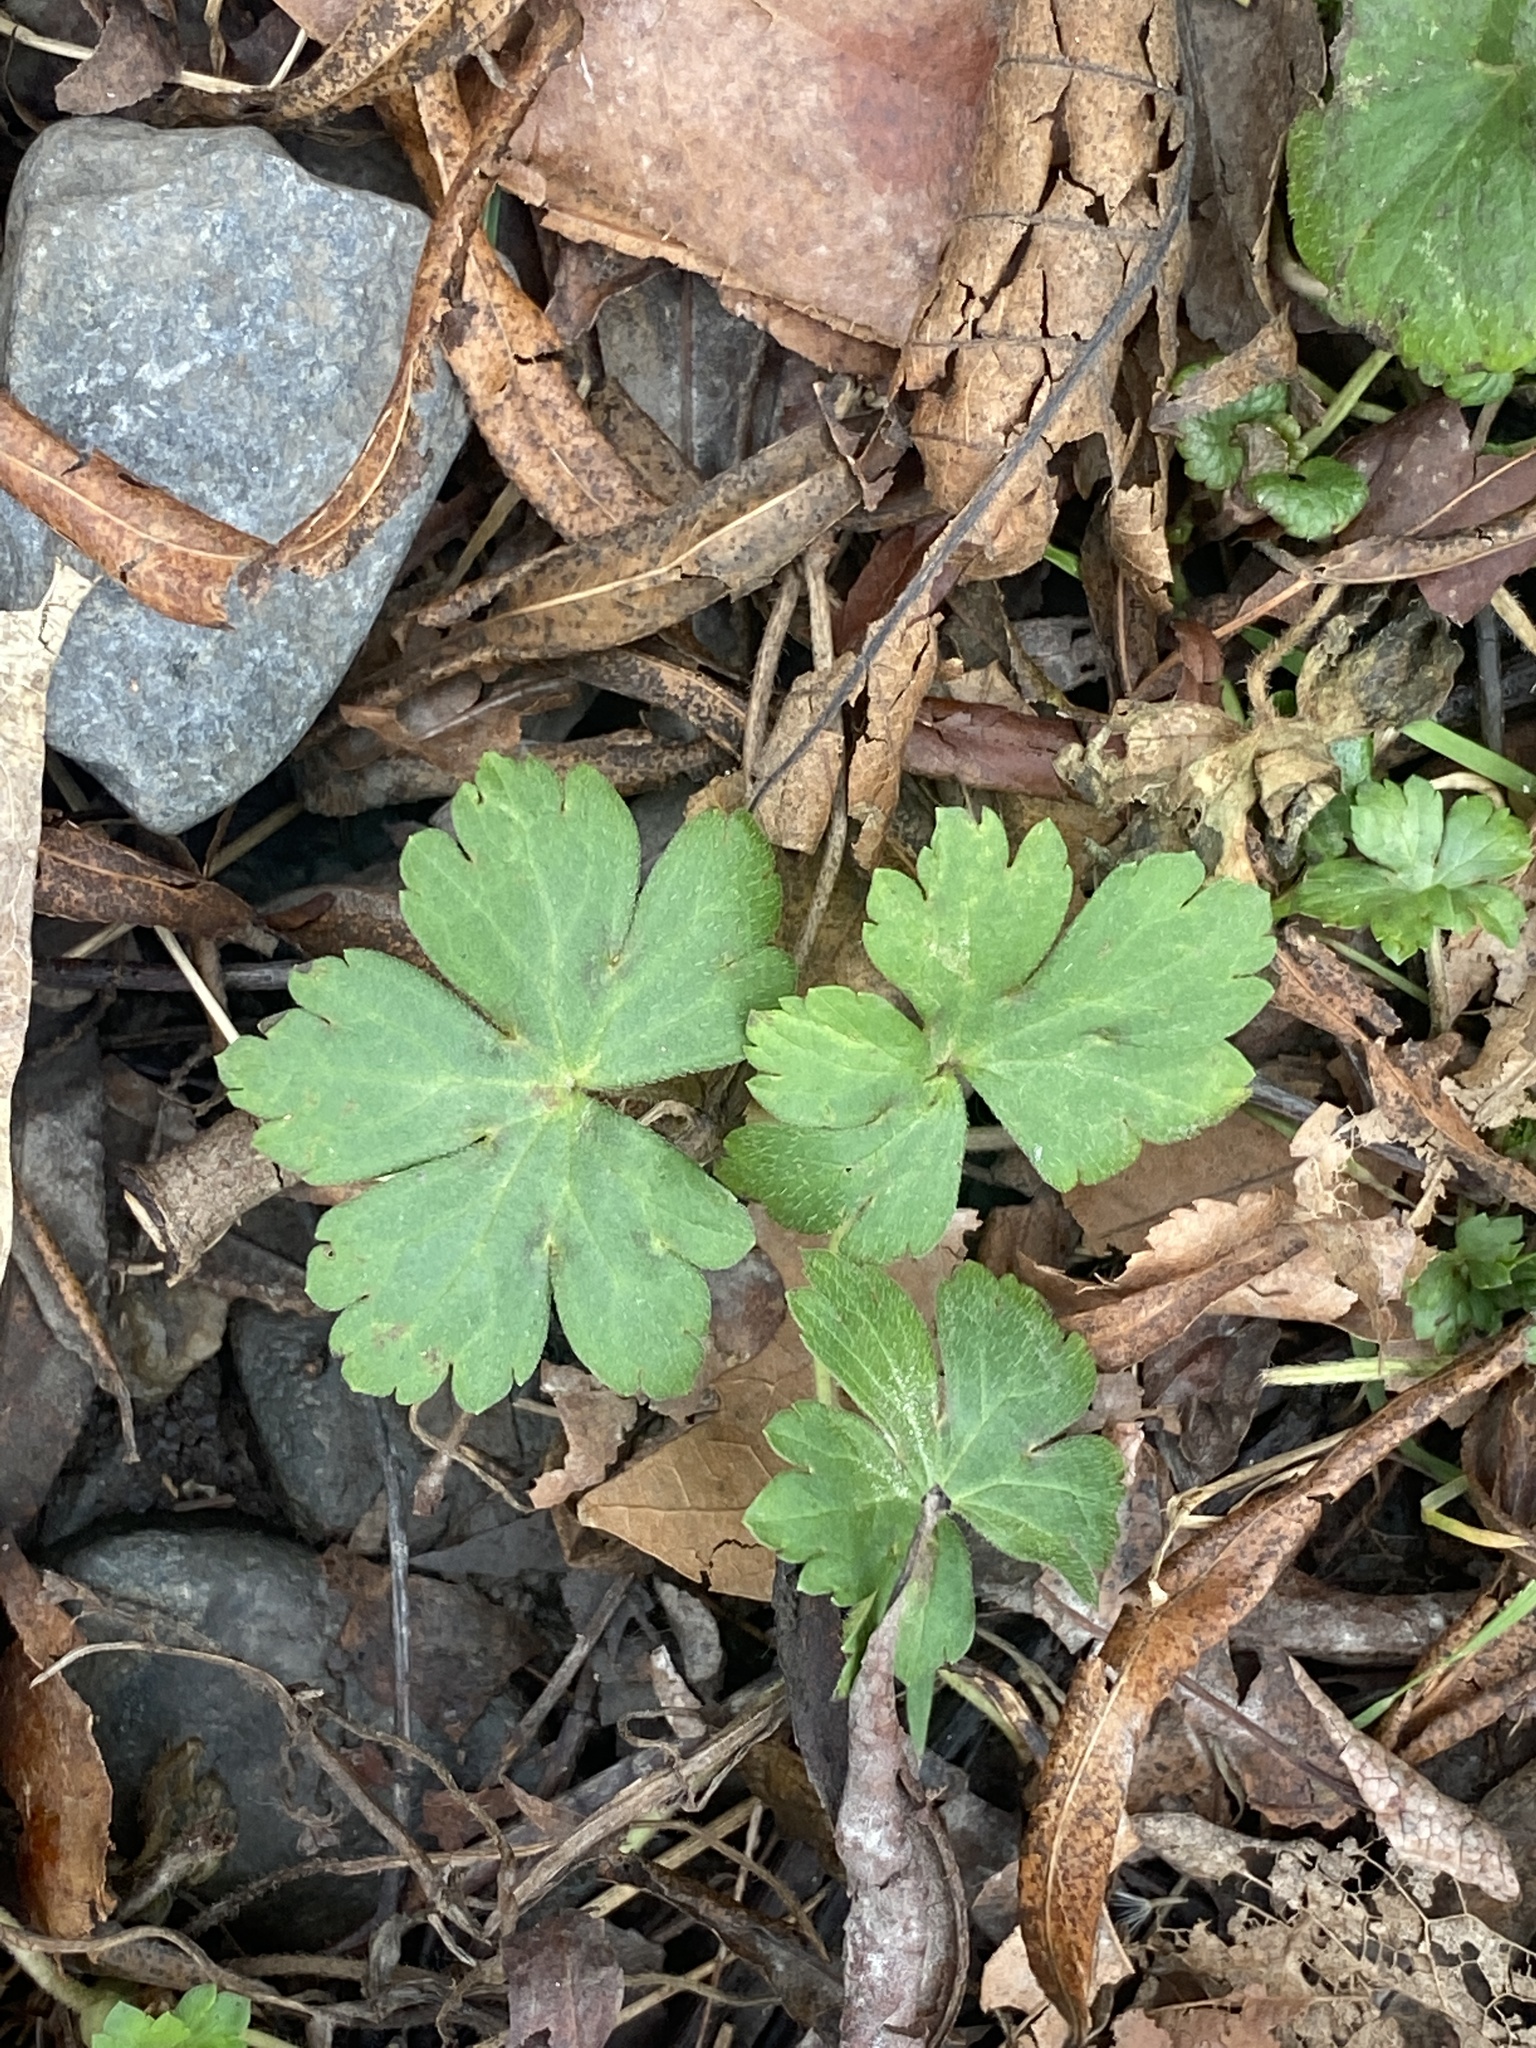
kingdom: Plantae
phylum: Tracheophyta
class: Magnoliopsida
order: Geraniales
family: Geraniaceae
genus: Geranium
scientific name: Geranium thunbergii
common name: Dewdrop crane's-bill
